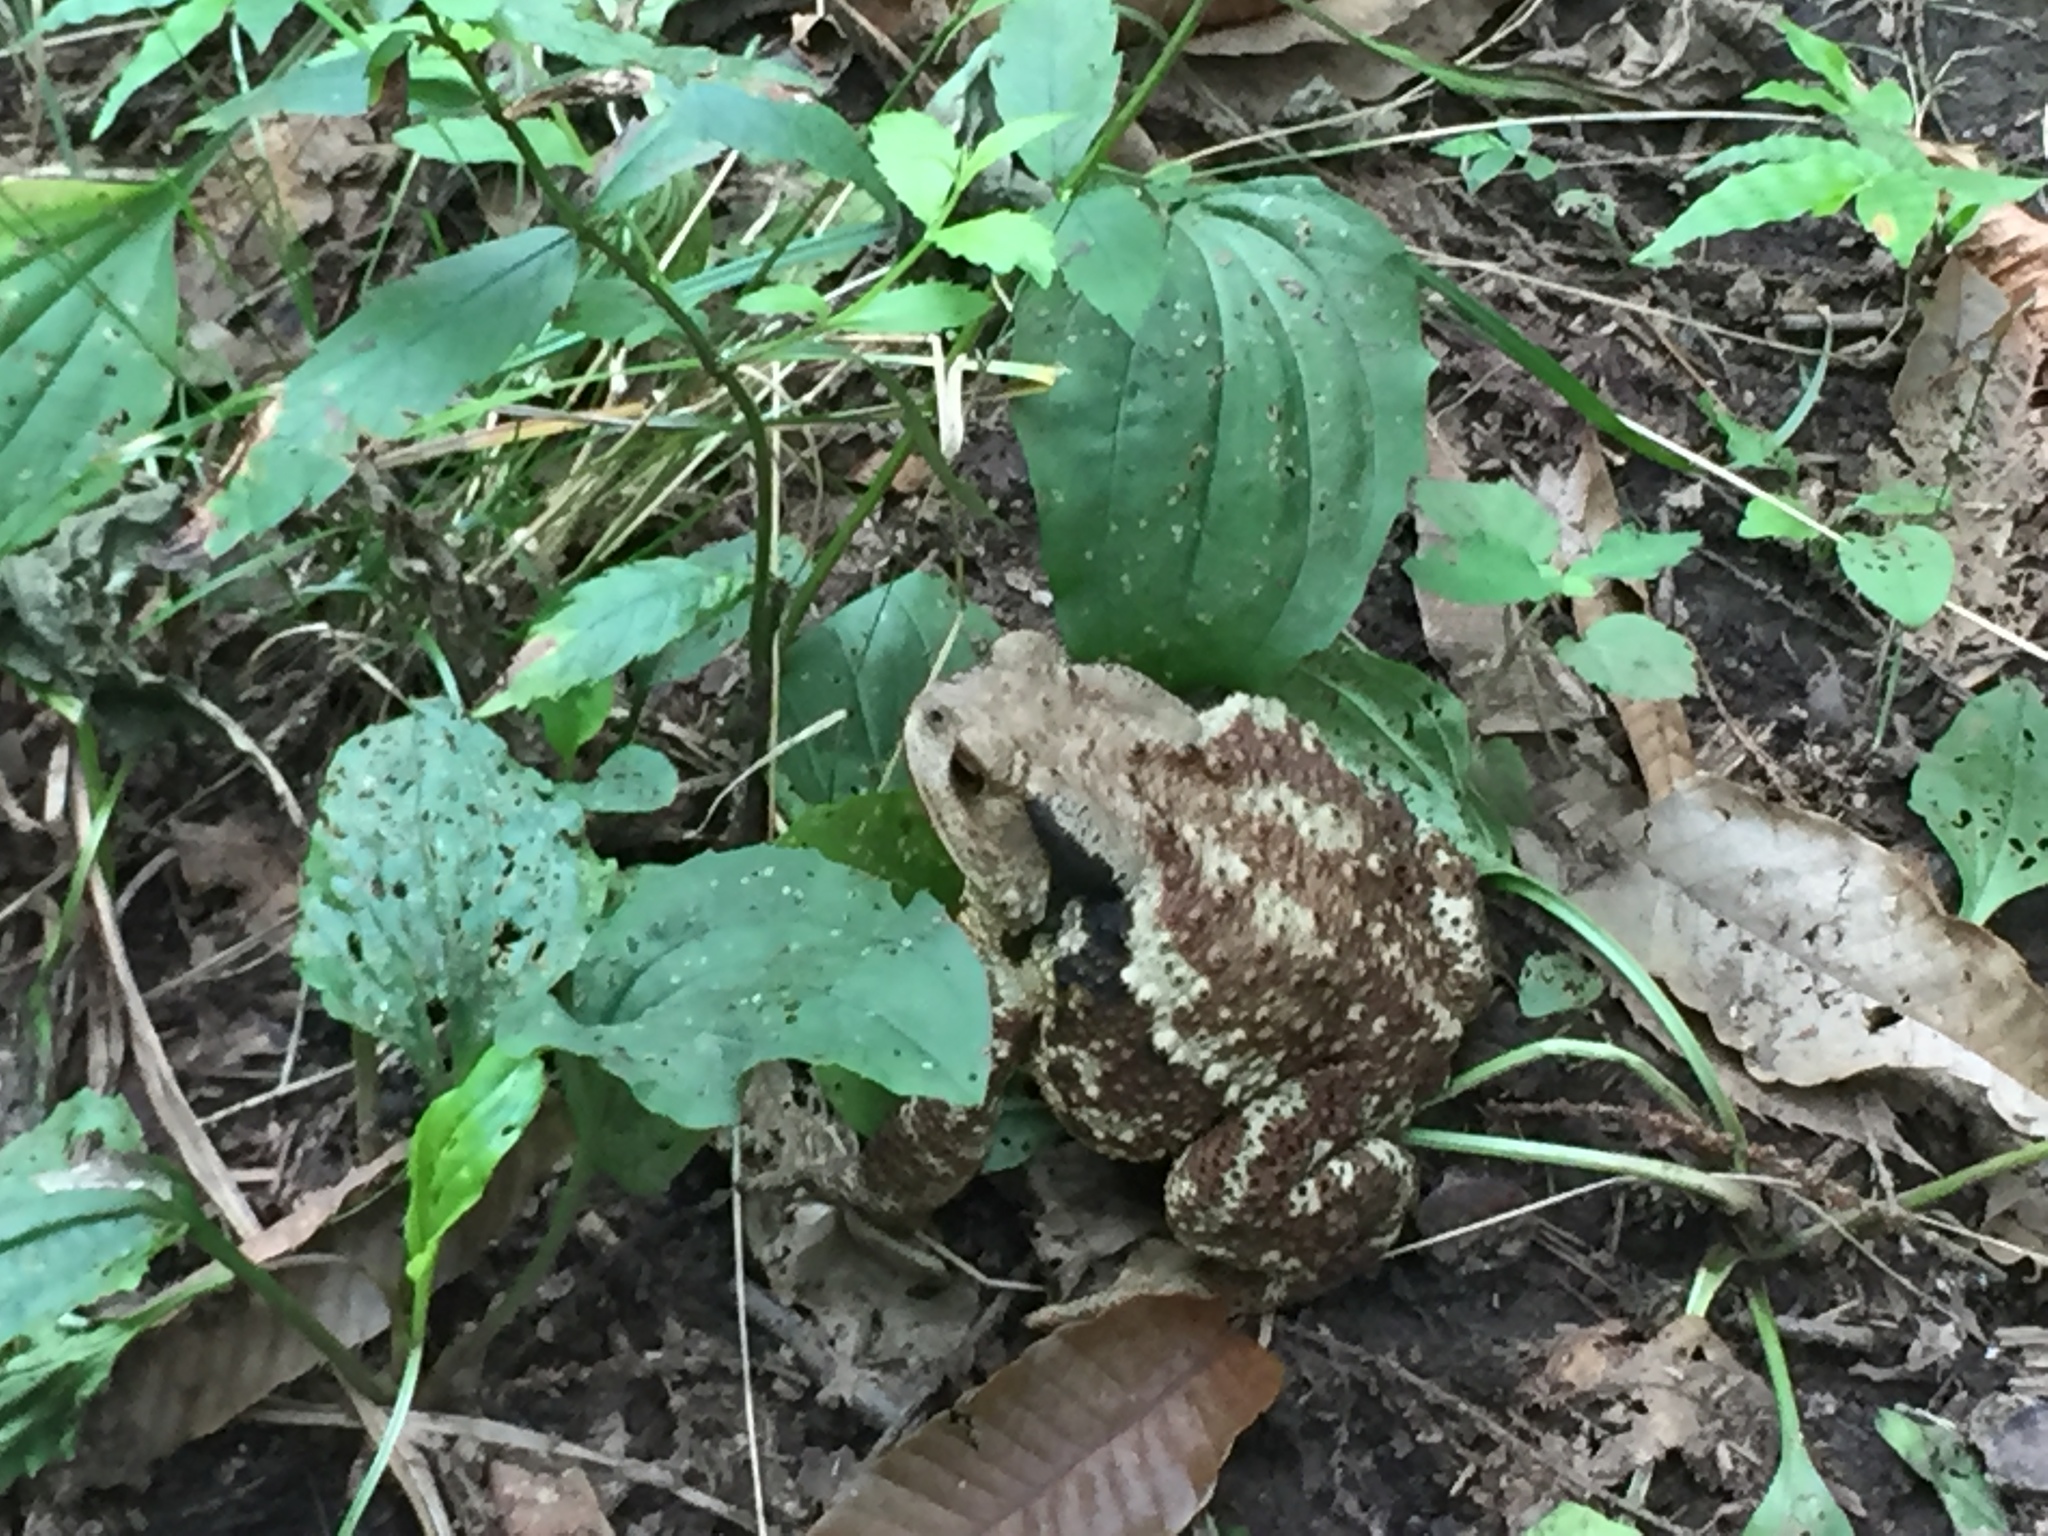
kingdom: Animalia
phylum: Chordata
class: Amphibia
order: Anura
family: Bufonidae
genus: Bufo
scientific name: Bufo gargarizans
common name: Asiatic toad
